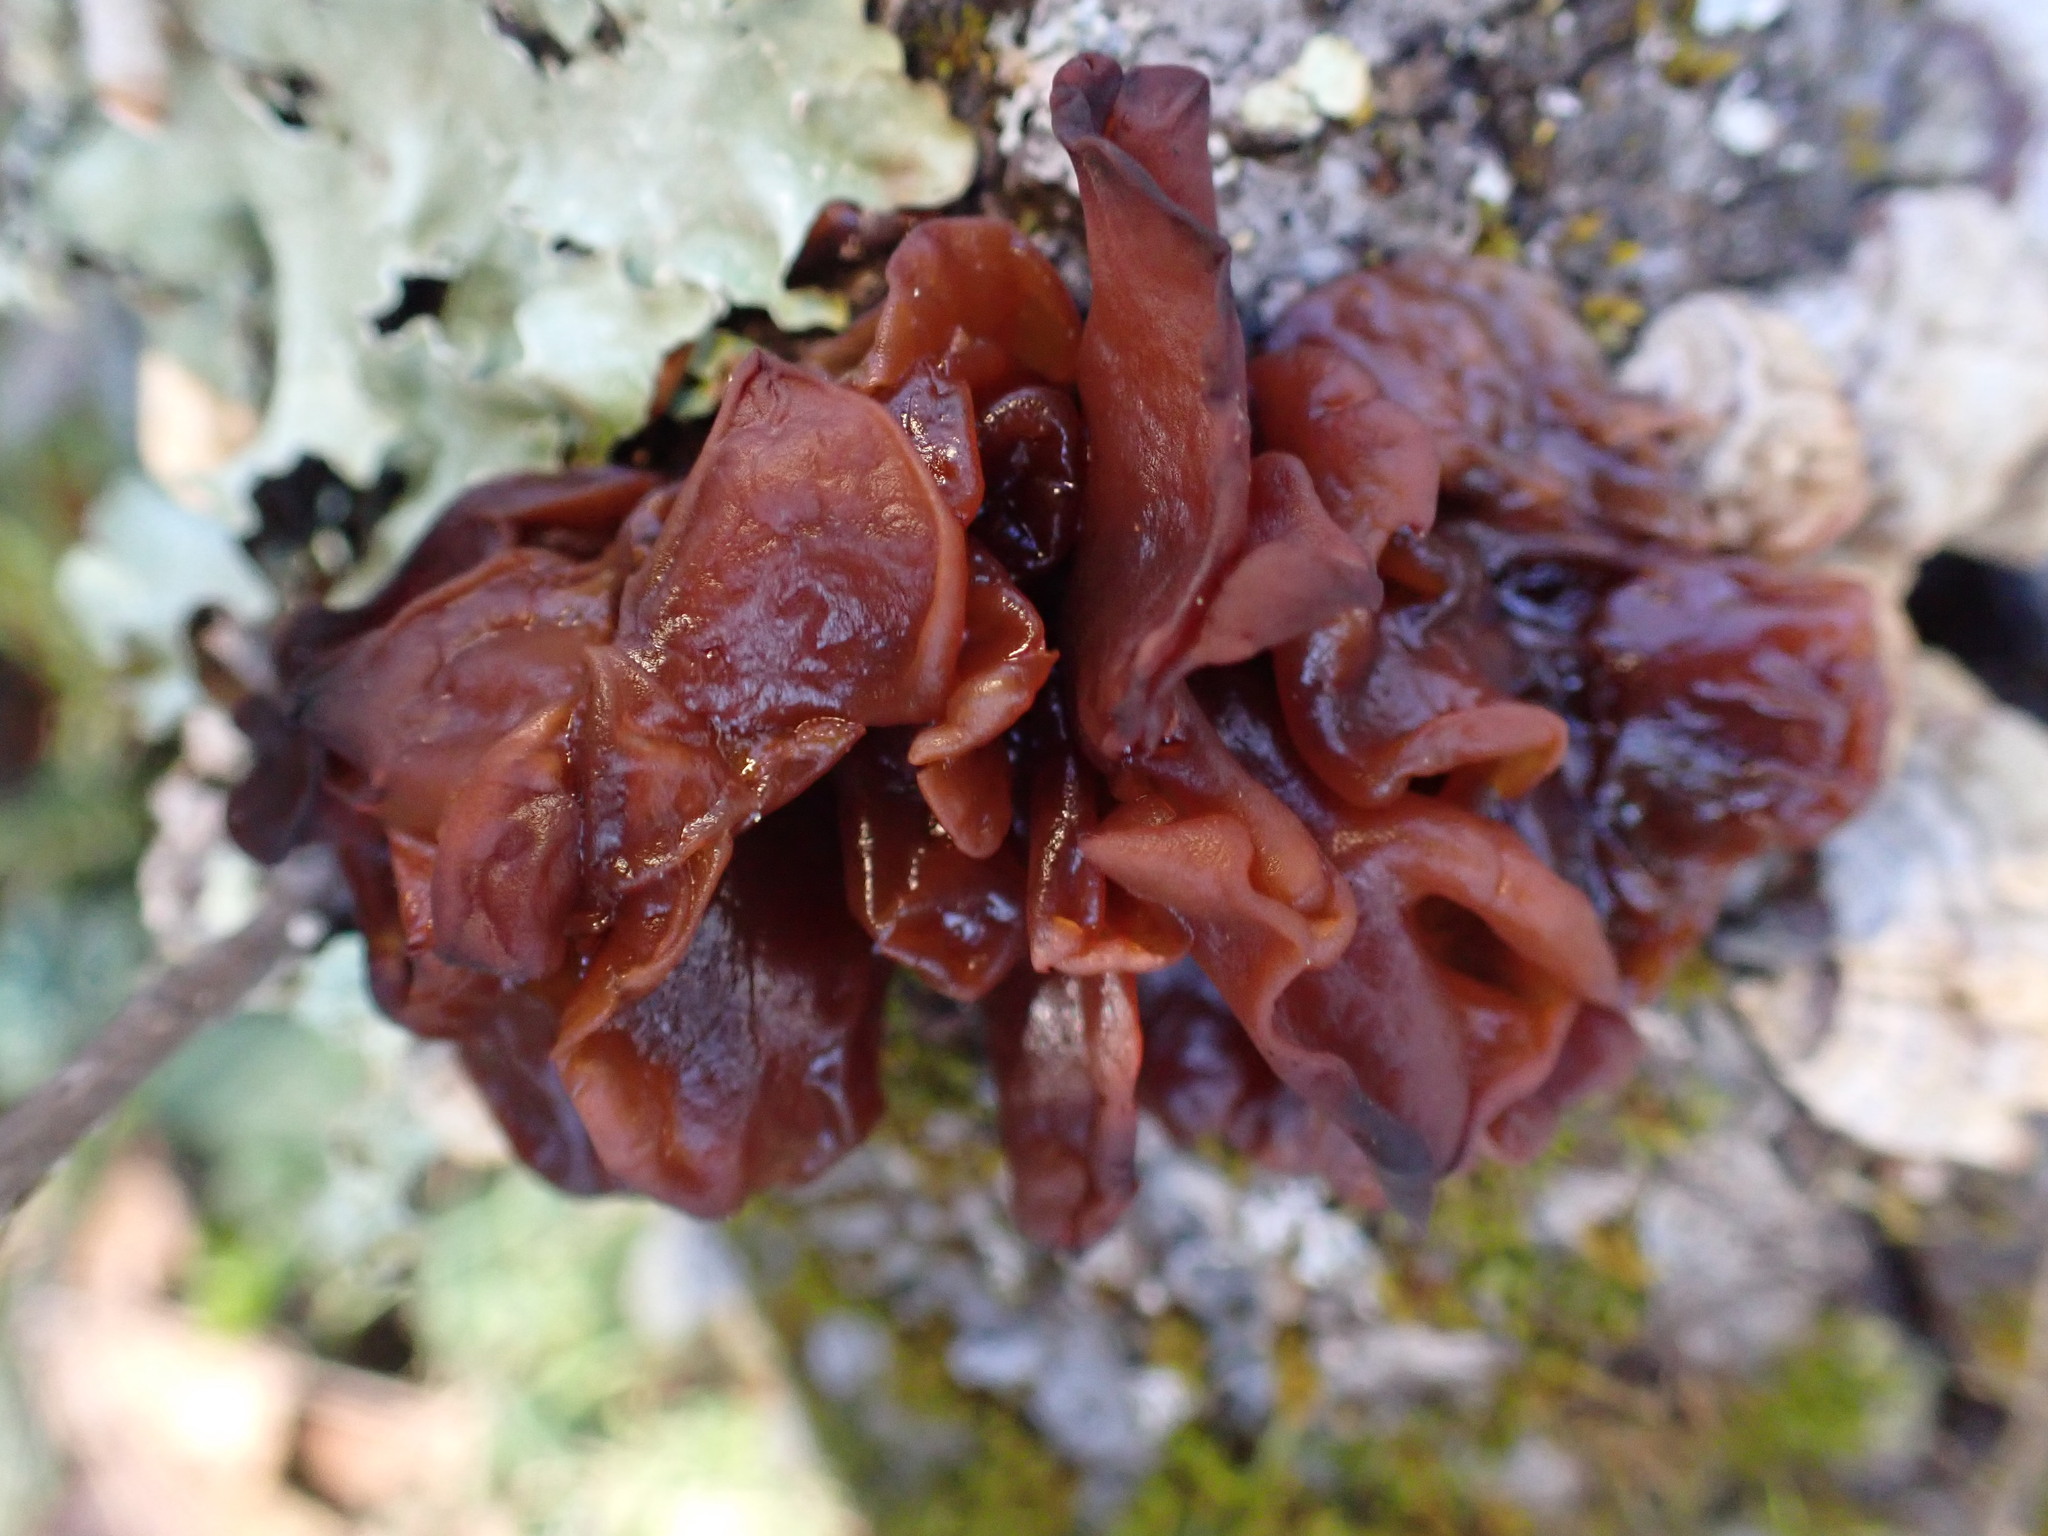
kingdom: Fungi
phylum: Basidiomycota
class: Tremellomycetes
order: Tremellales
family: Tremellaceae
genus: Phaeotremella
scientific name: Phaeotremella foliacea
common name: Leafy brain
